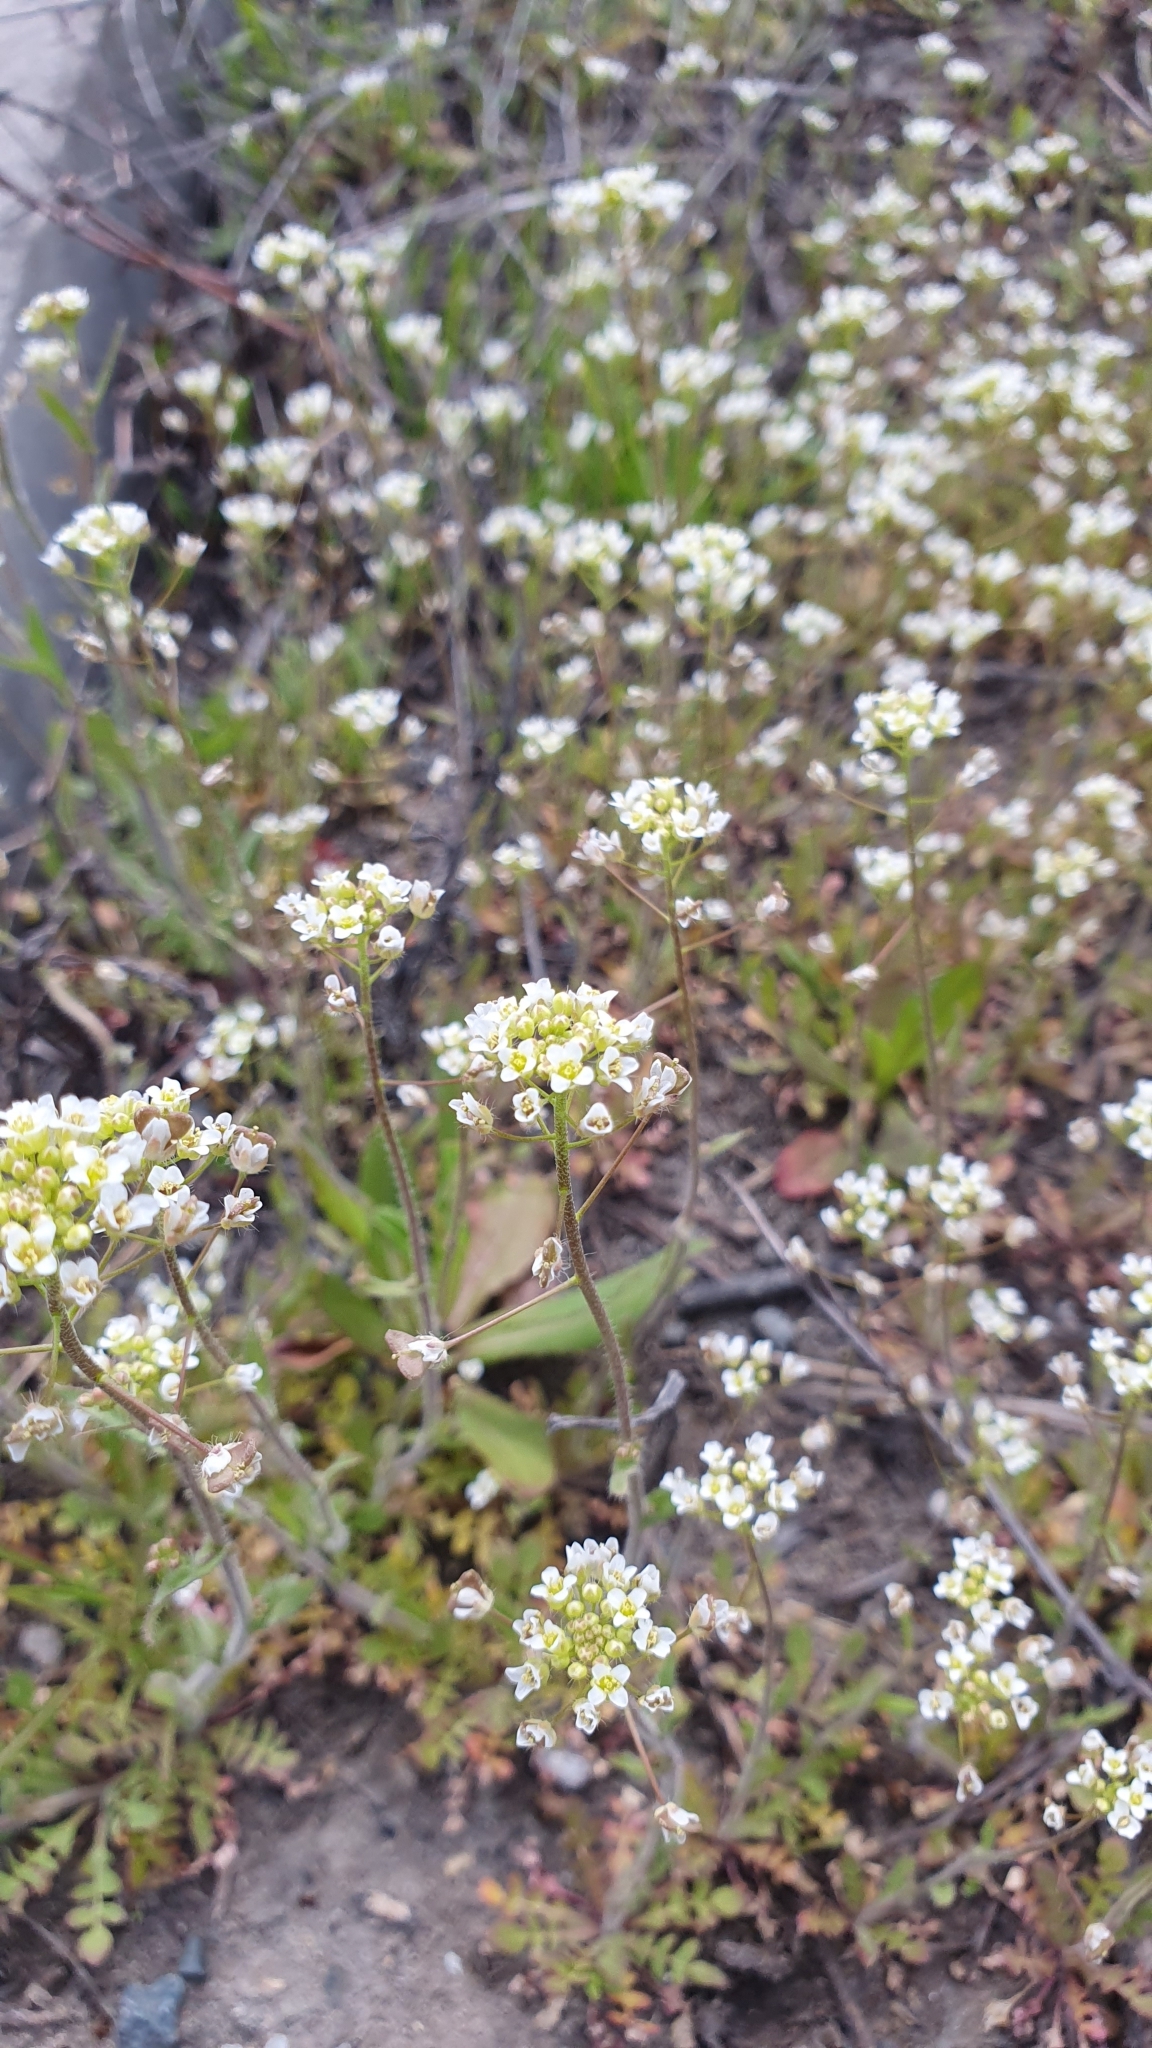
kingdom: Plantae
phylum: Tracheophyta
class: Magnoliopsida
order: Brassicales
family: Brassicaceae
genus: Capsella
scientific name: Capsella bursa-pastoris
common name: Shepherd's purse
